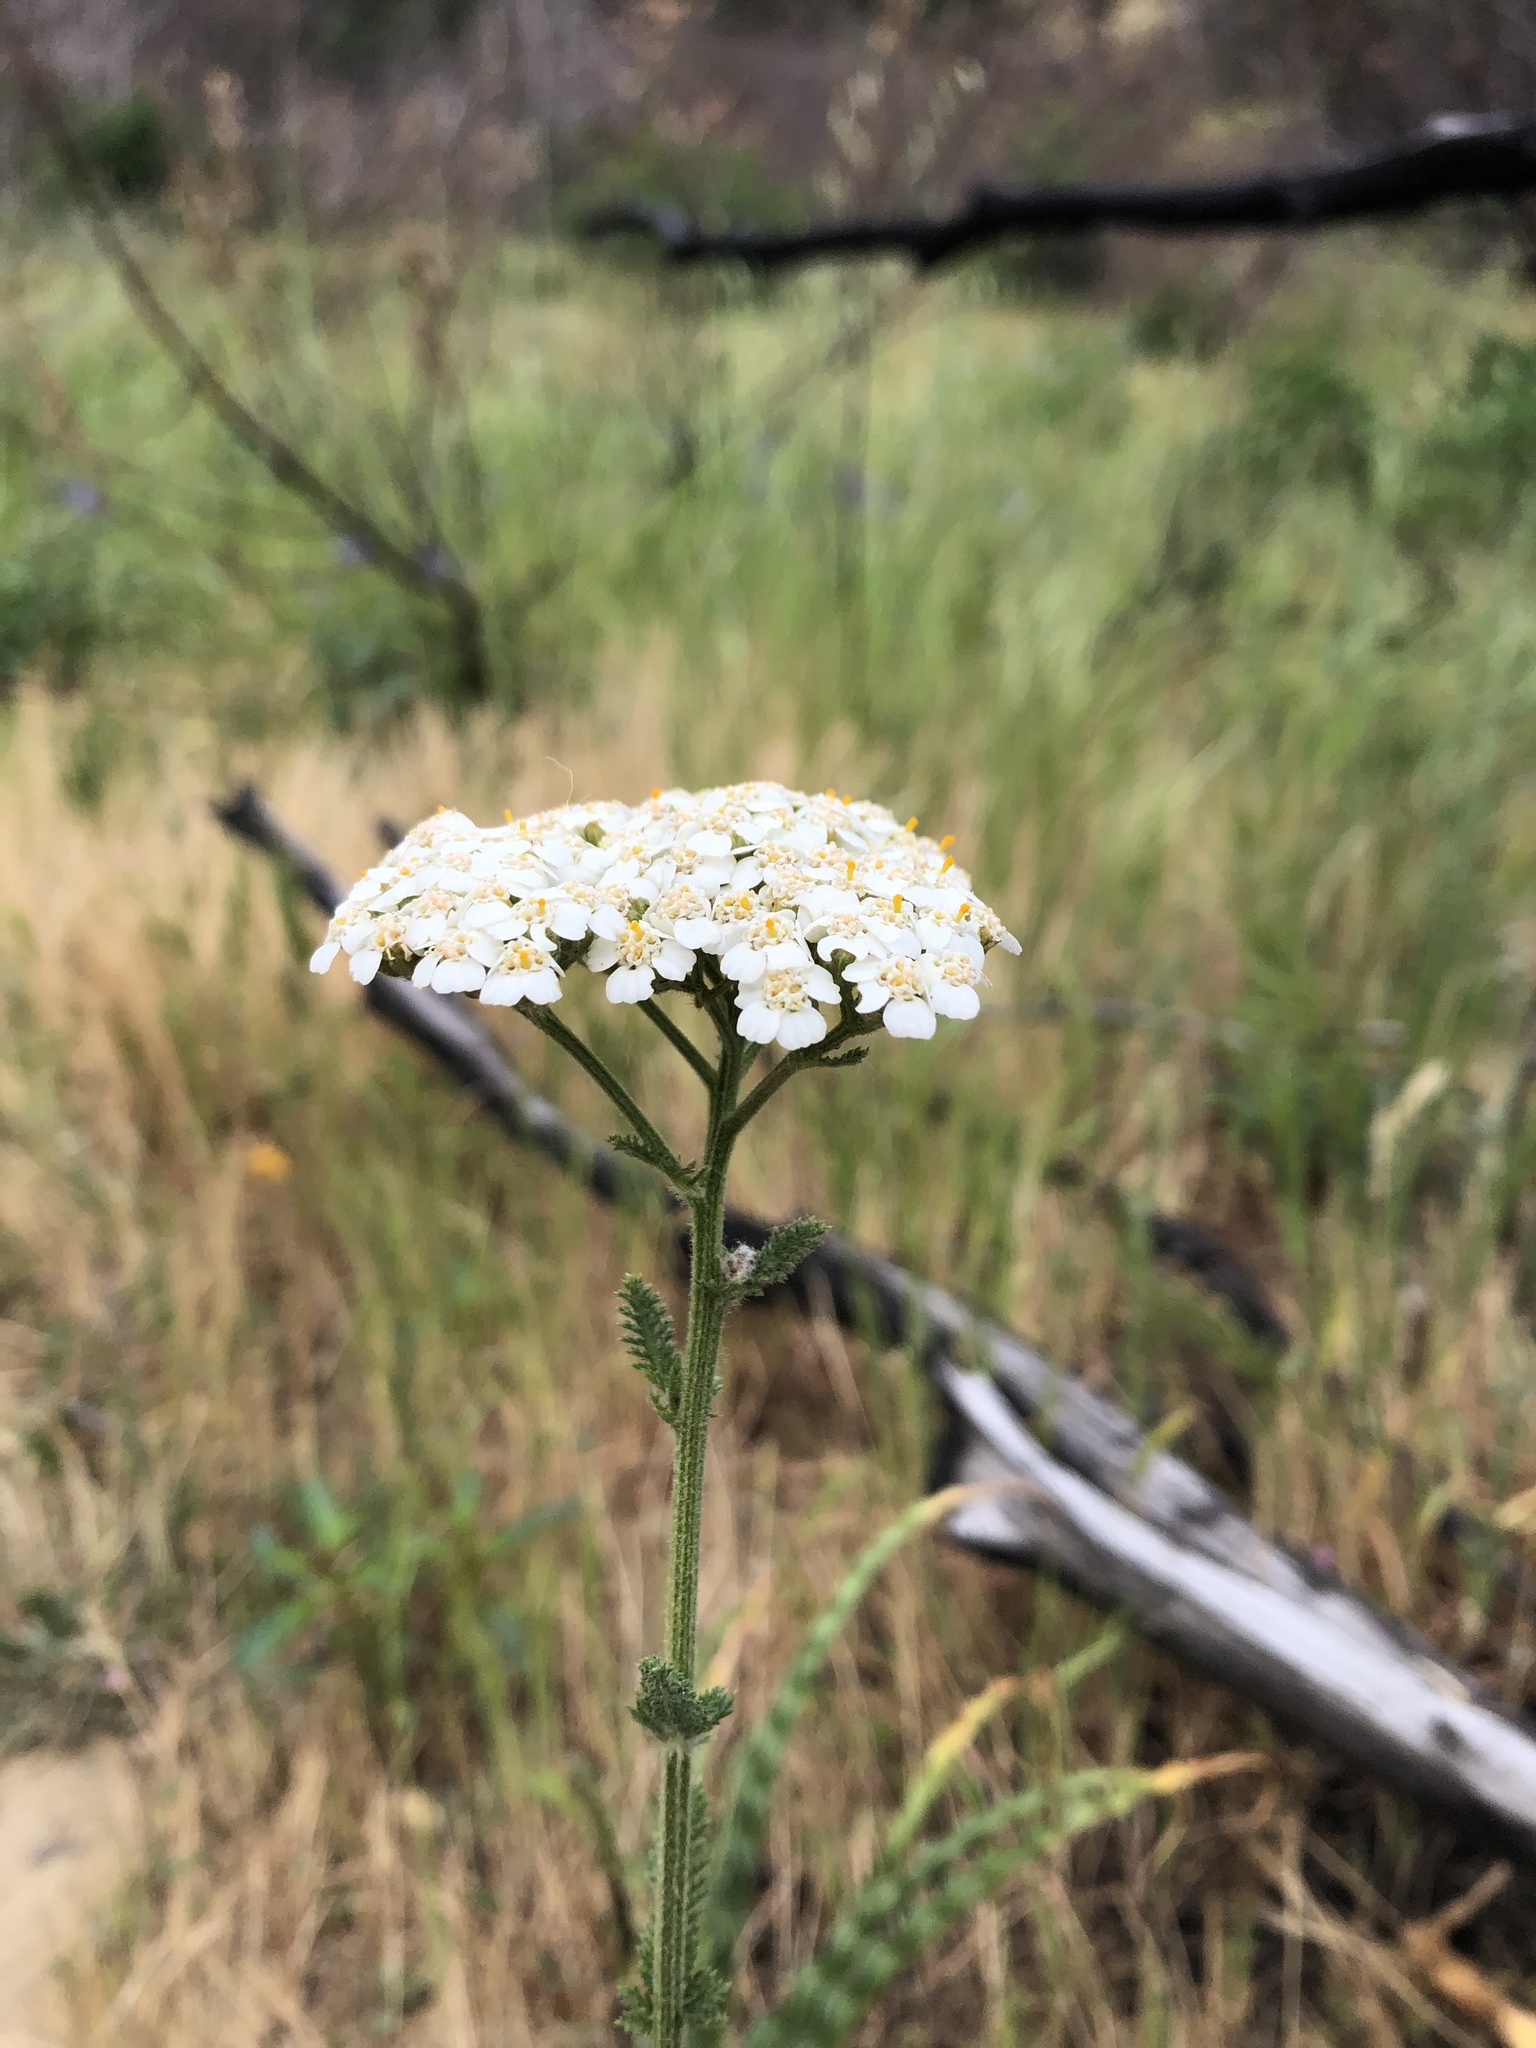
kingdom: Plantae
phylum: Tracheophyta
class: Magnoliopsida
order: Asterales
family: Asteraceae
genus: Achillea
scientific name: Achillea millefolium
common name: Yarrow
